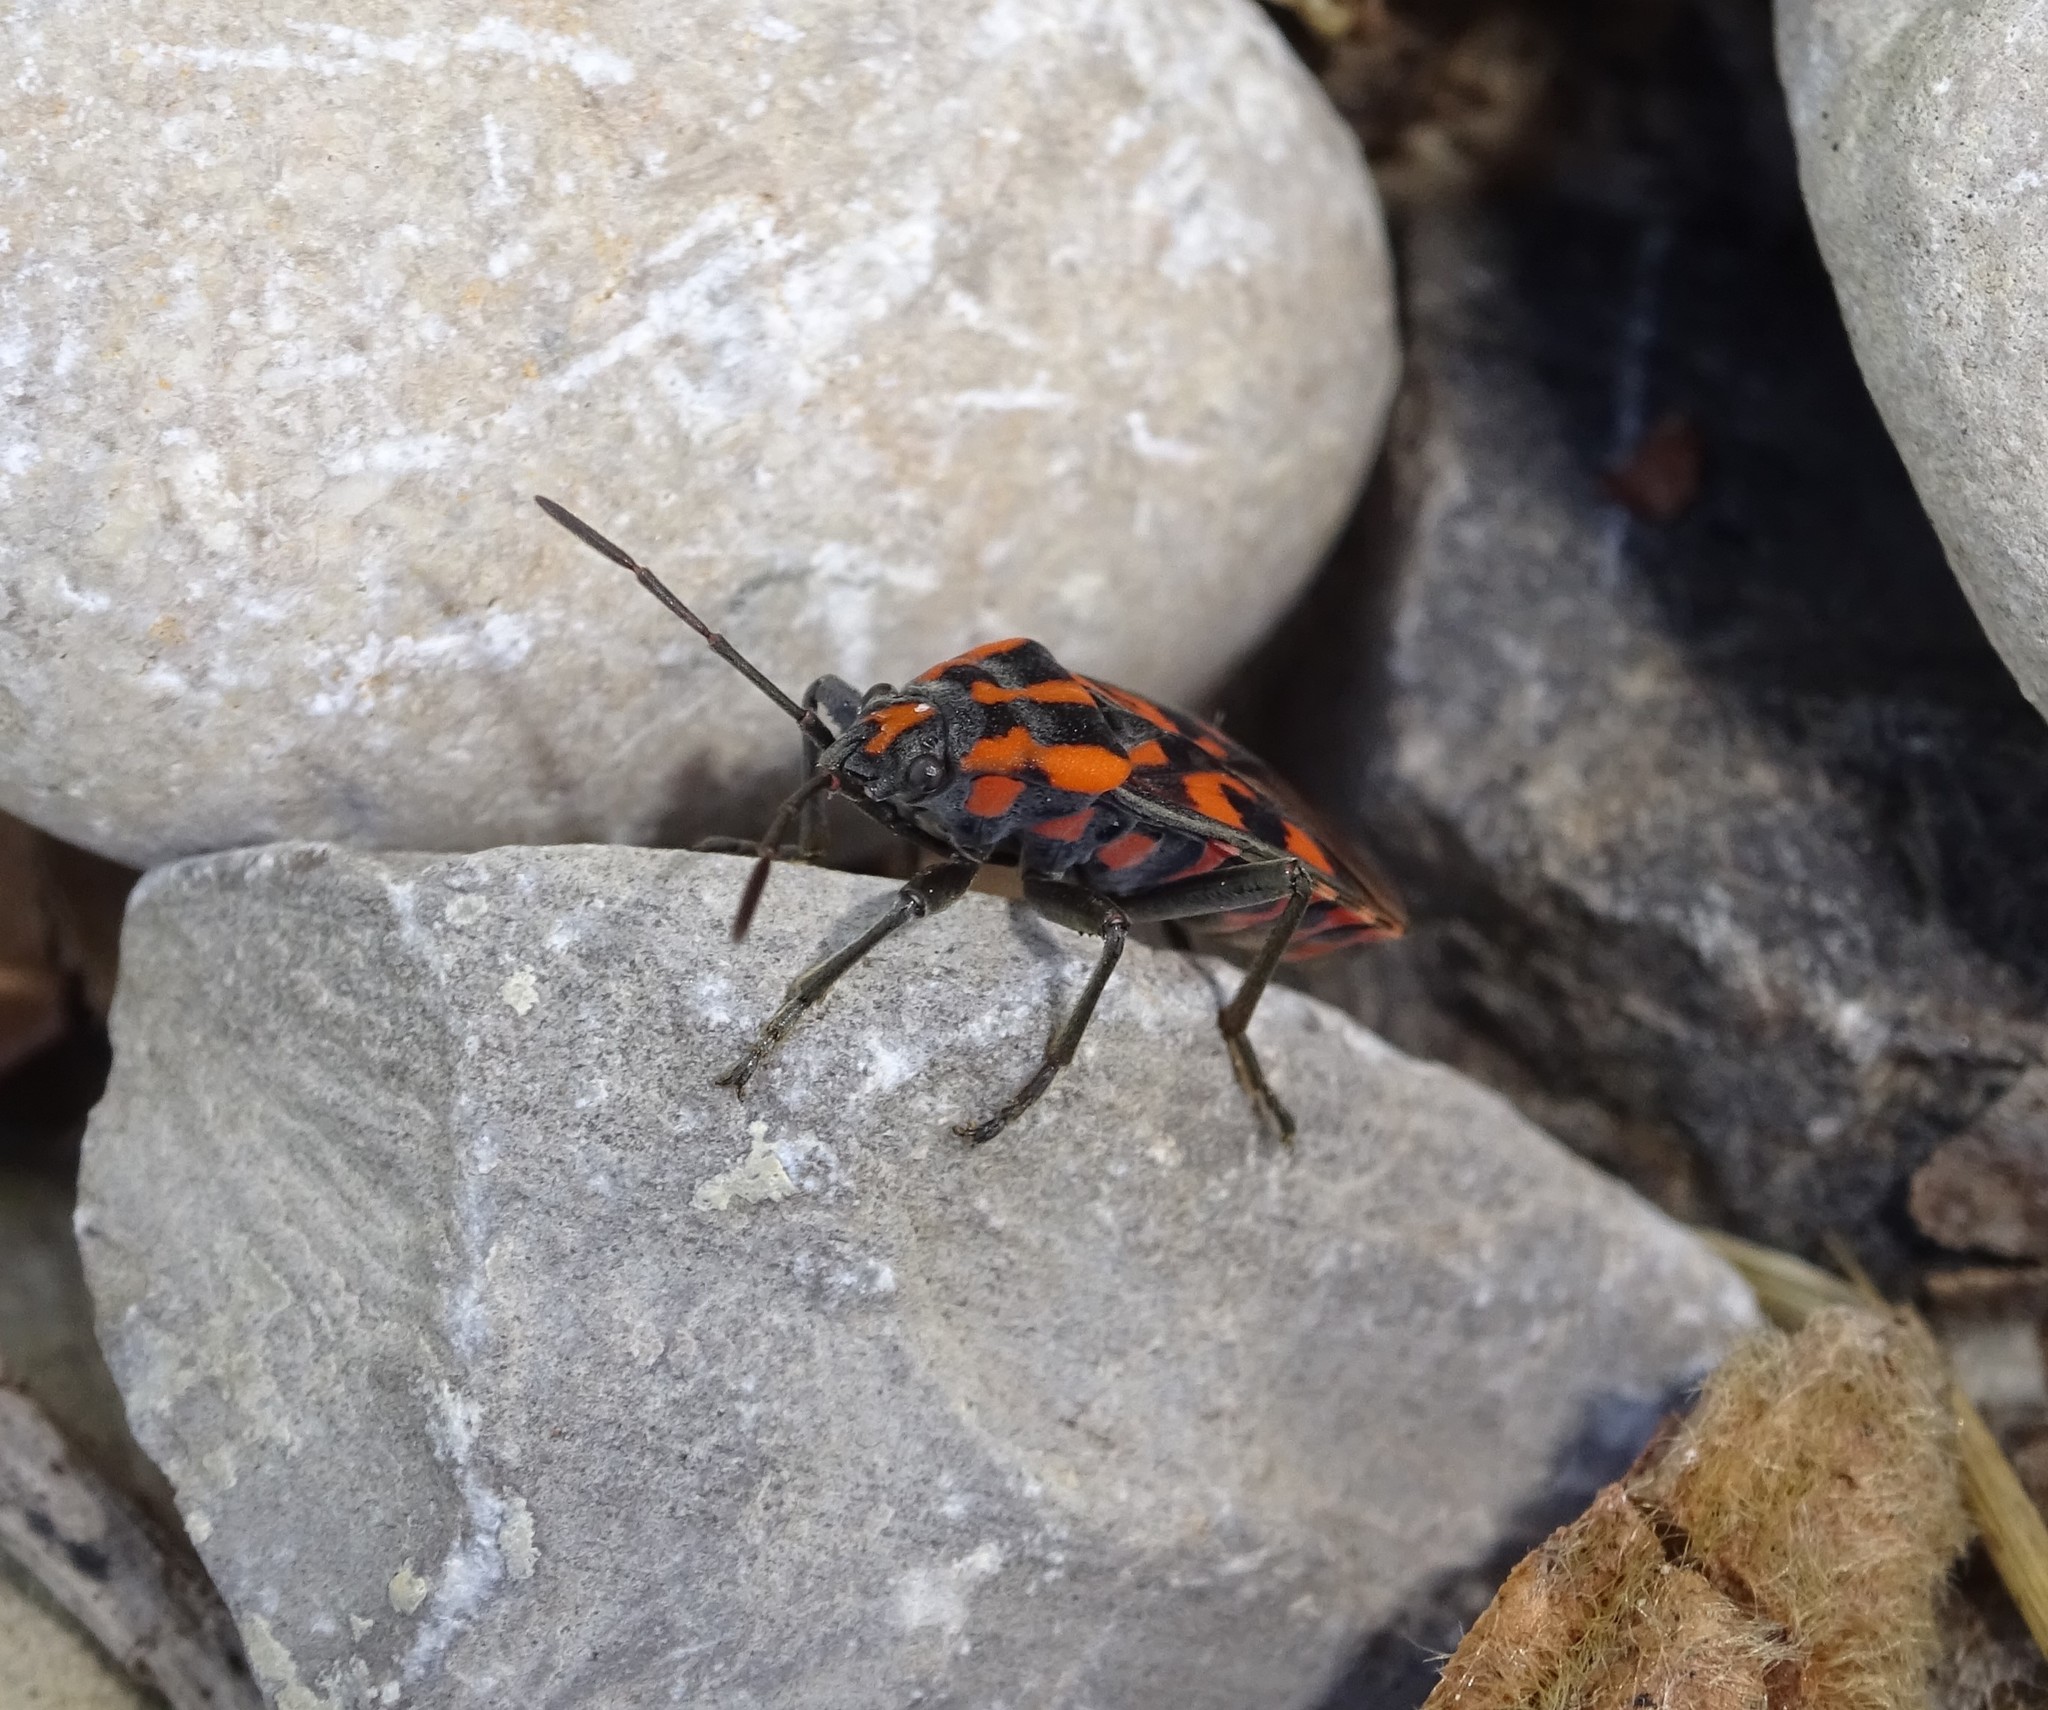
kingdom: Animalia
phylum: Arthropoda
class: Insecta
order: Hemiptera
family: Lygaeidae
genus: Spilostethus
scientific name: Spilostethus saxatilis
